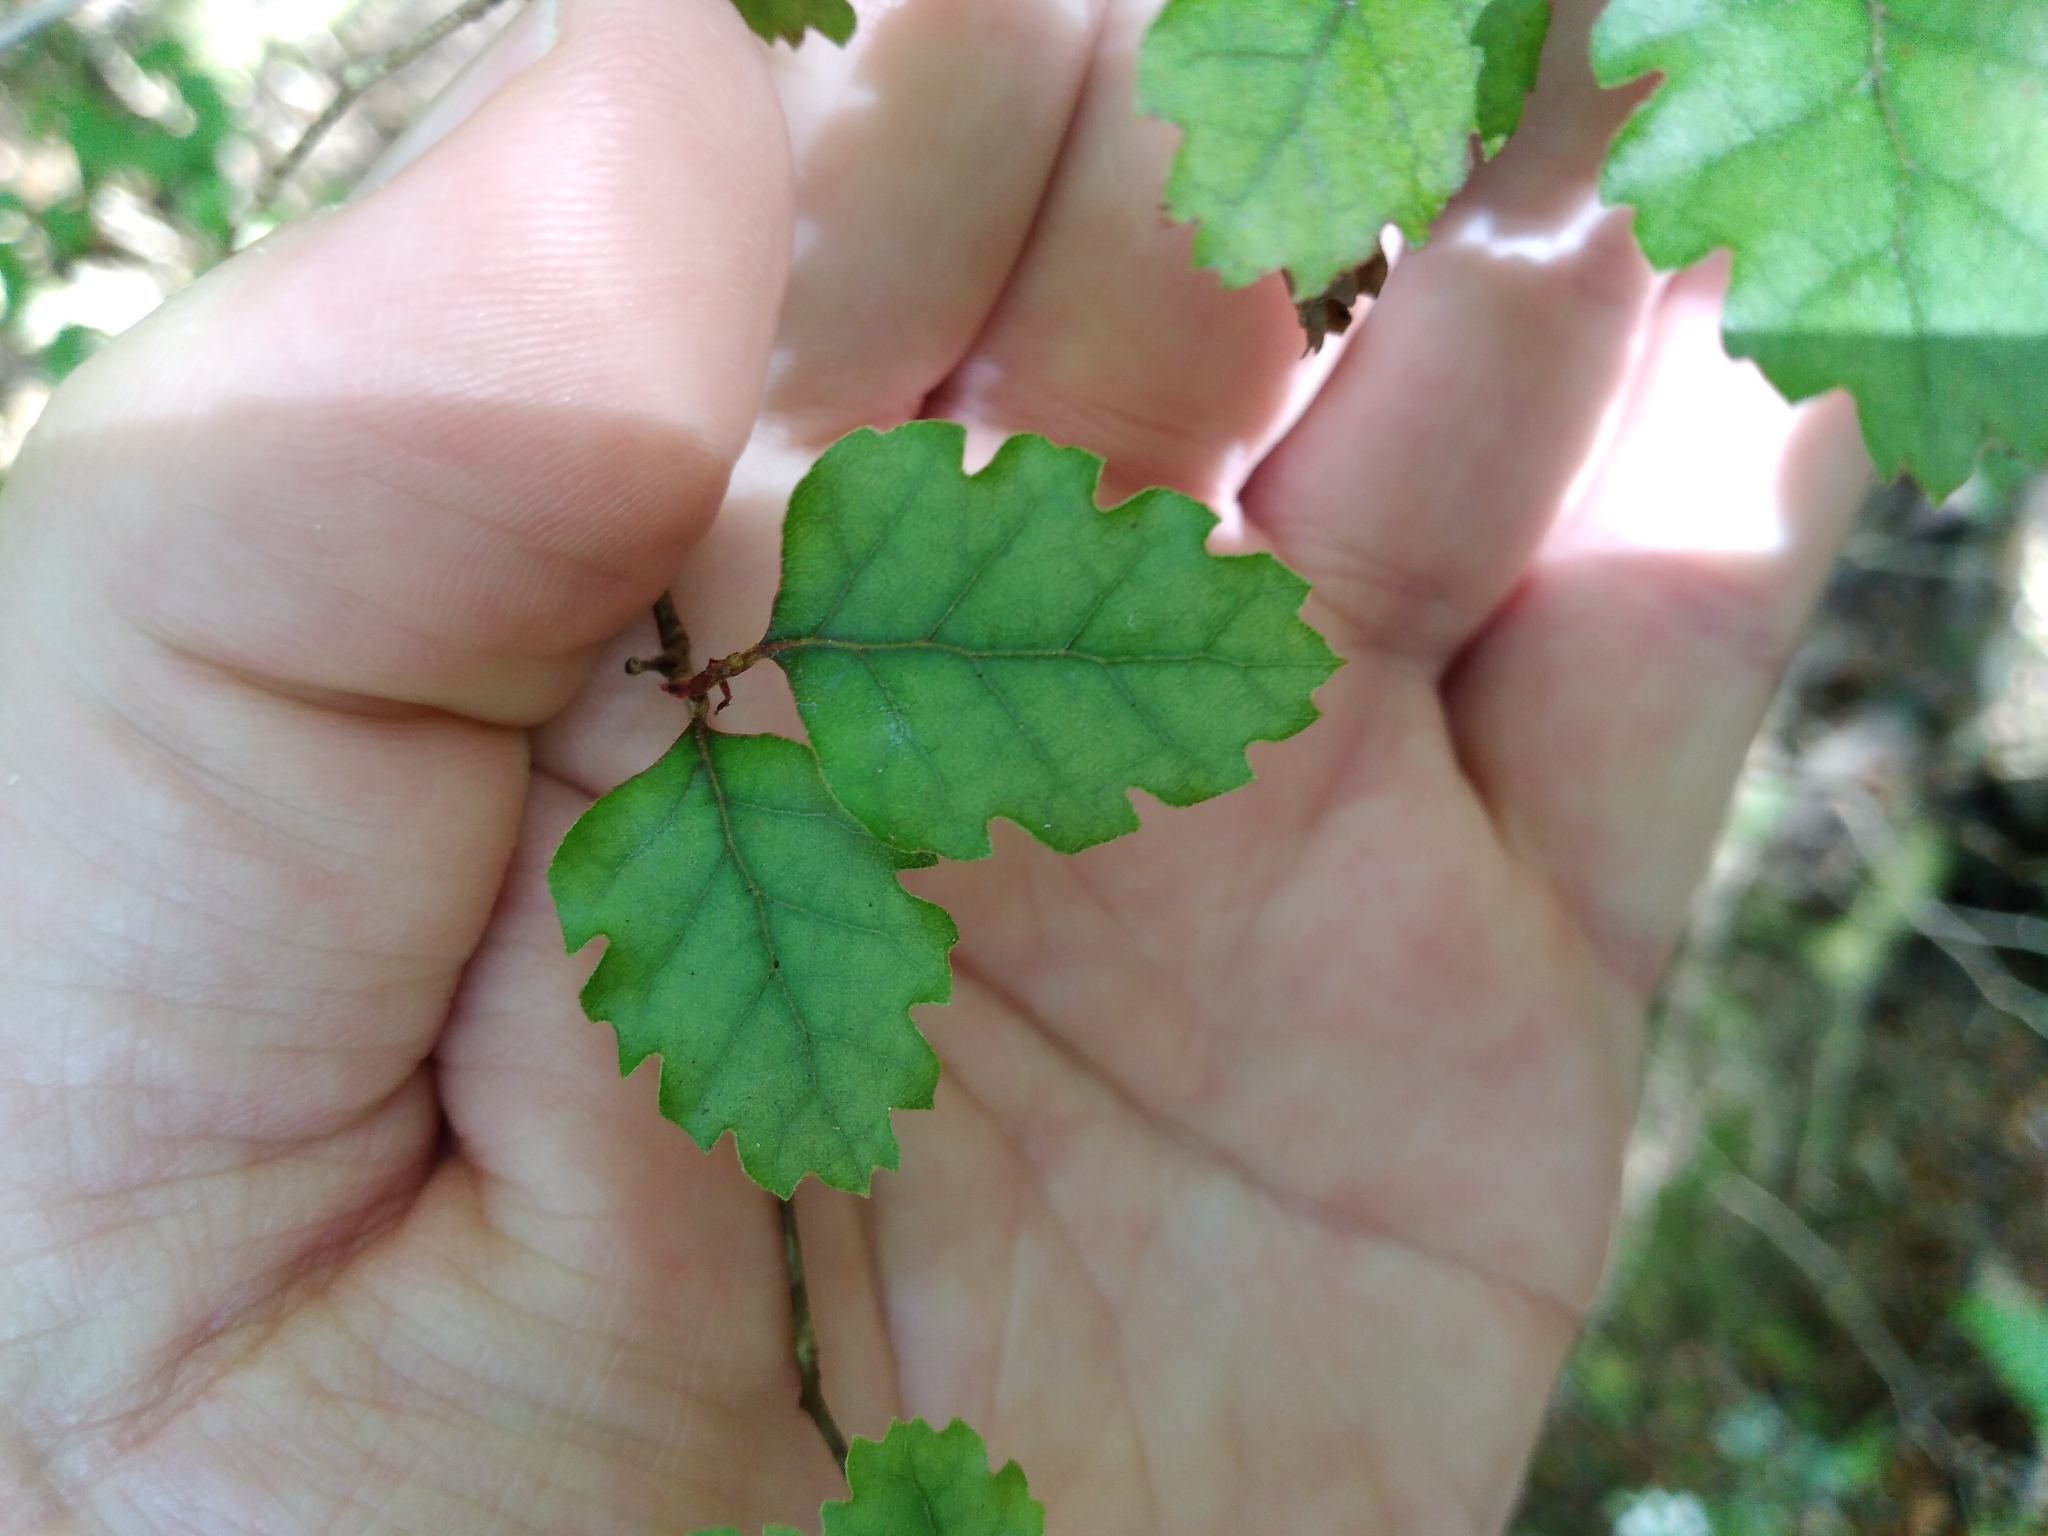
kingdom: Plantae
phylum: Tracheophyta
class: Magnoliopsida
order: Fagales
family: Nothofagaceae
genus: Nothofagus
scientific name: Nothofagus fusca
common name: Red beech
